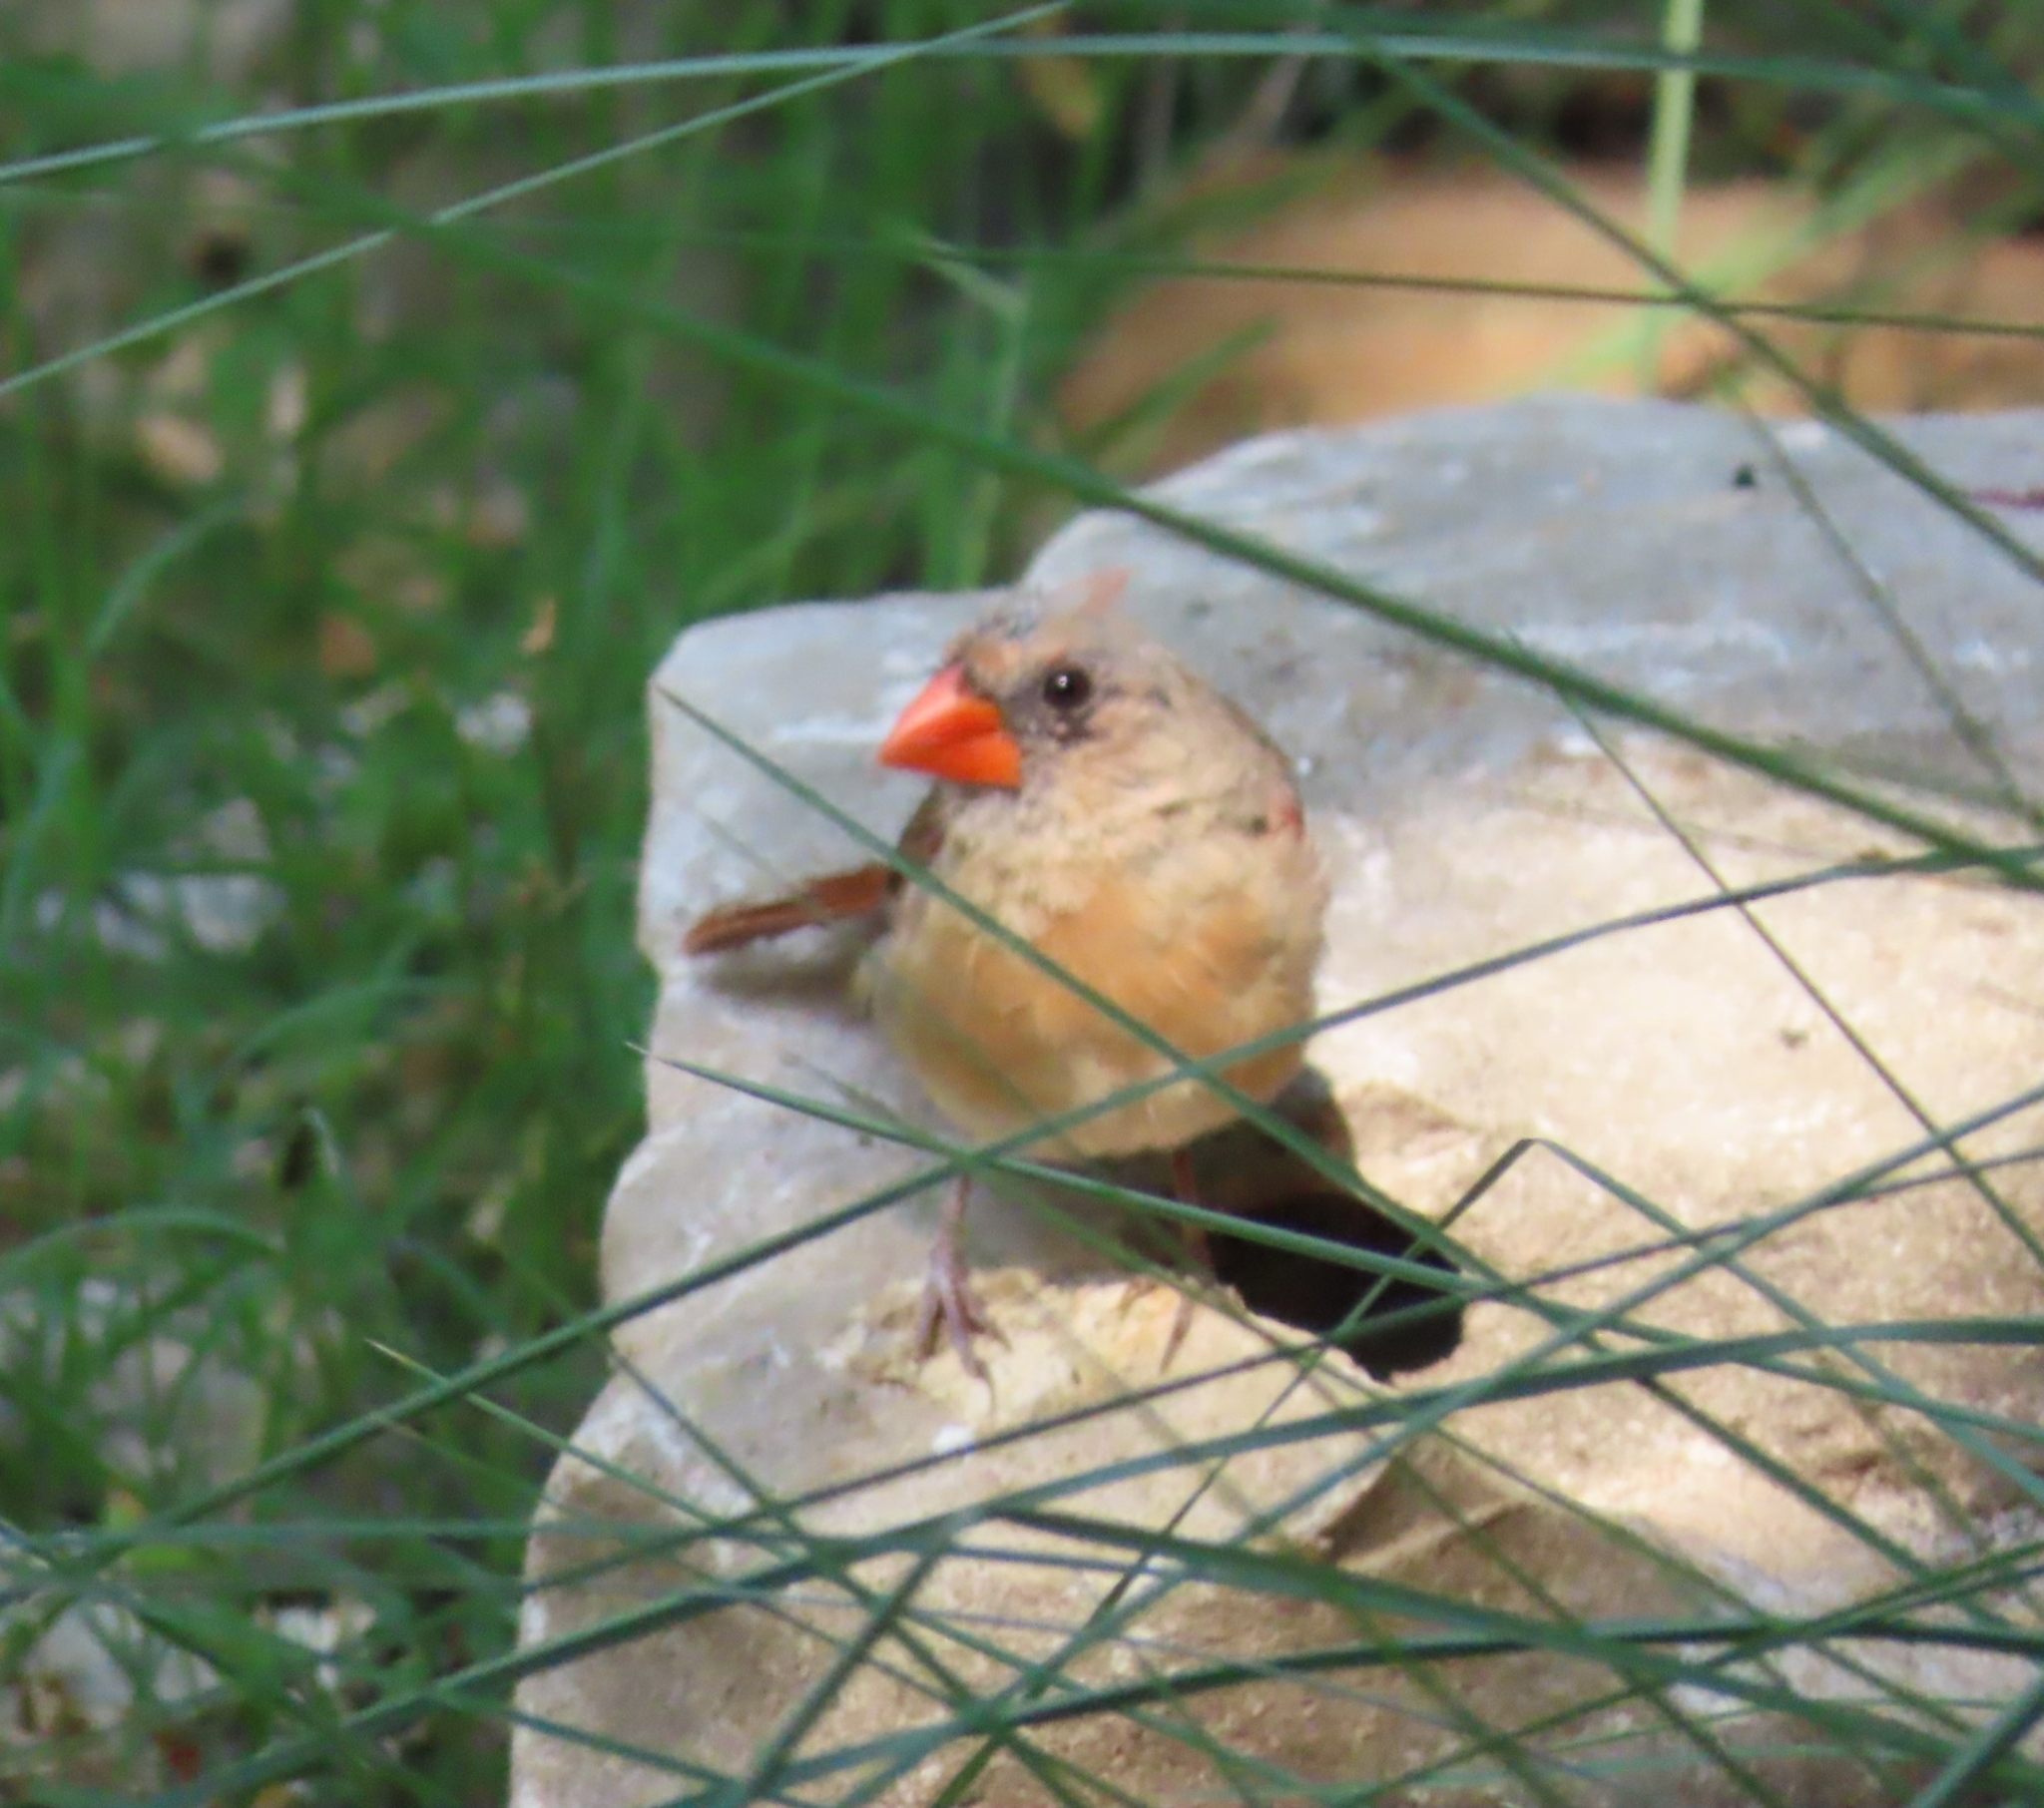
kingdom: Animalia
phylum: Chordata
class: Aves
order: Passeriformes
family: Cardinalidae
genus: Cardinalis
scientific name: Cardinalis cardinalis
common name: Northern cardinal
